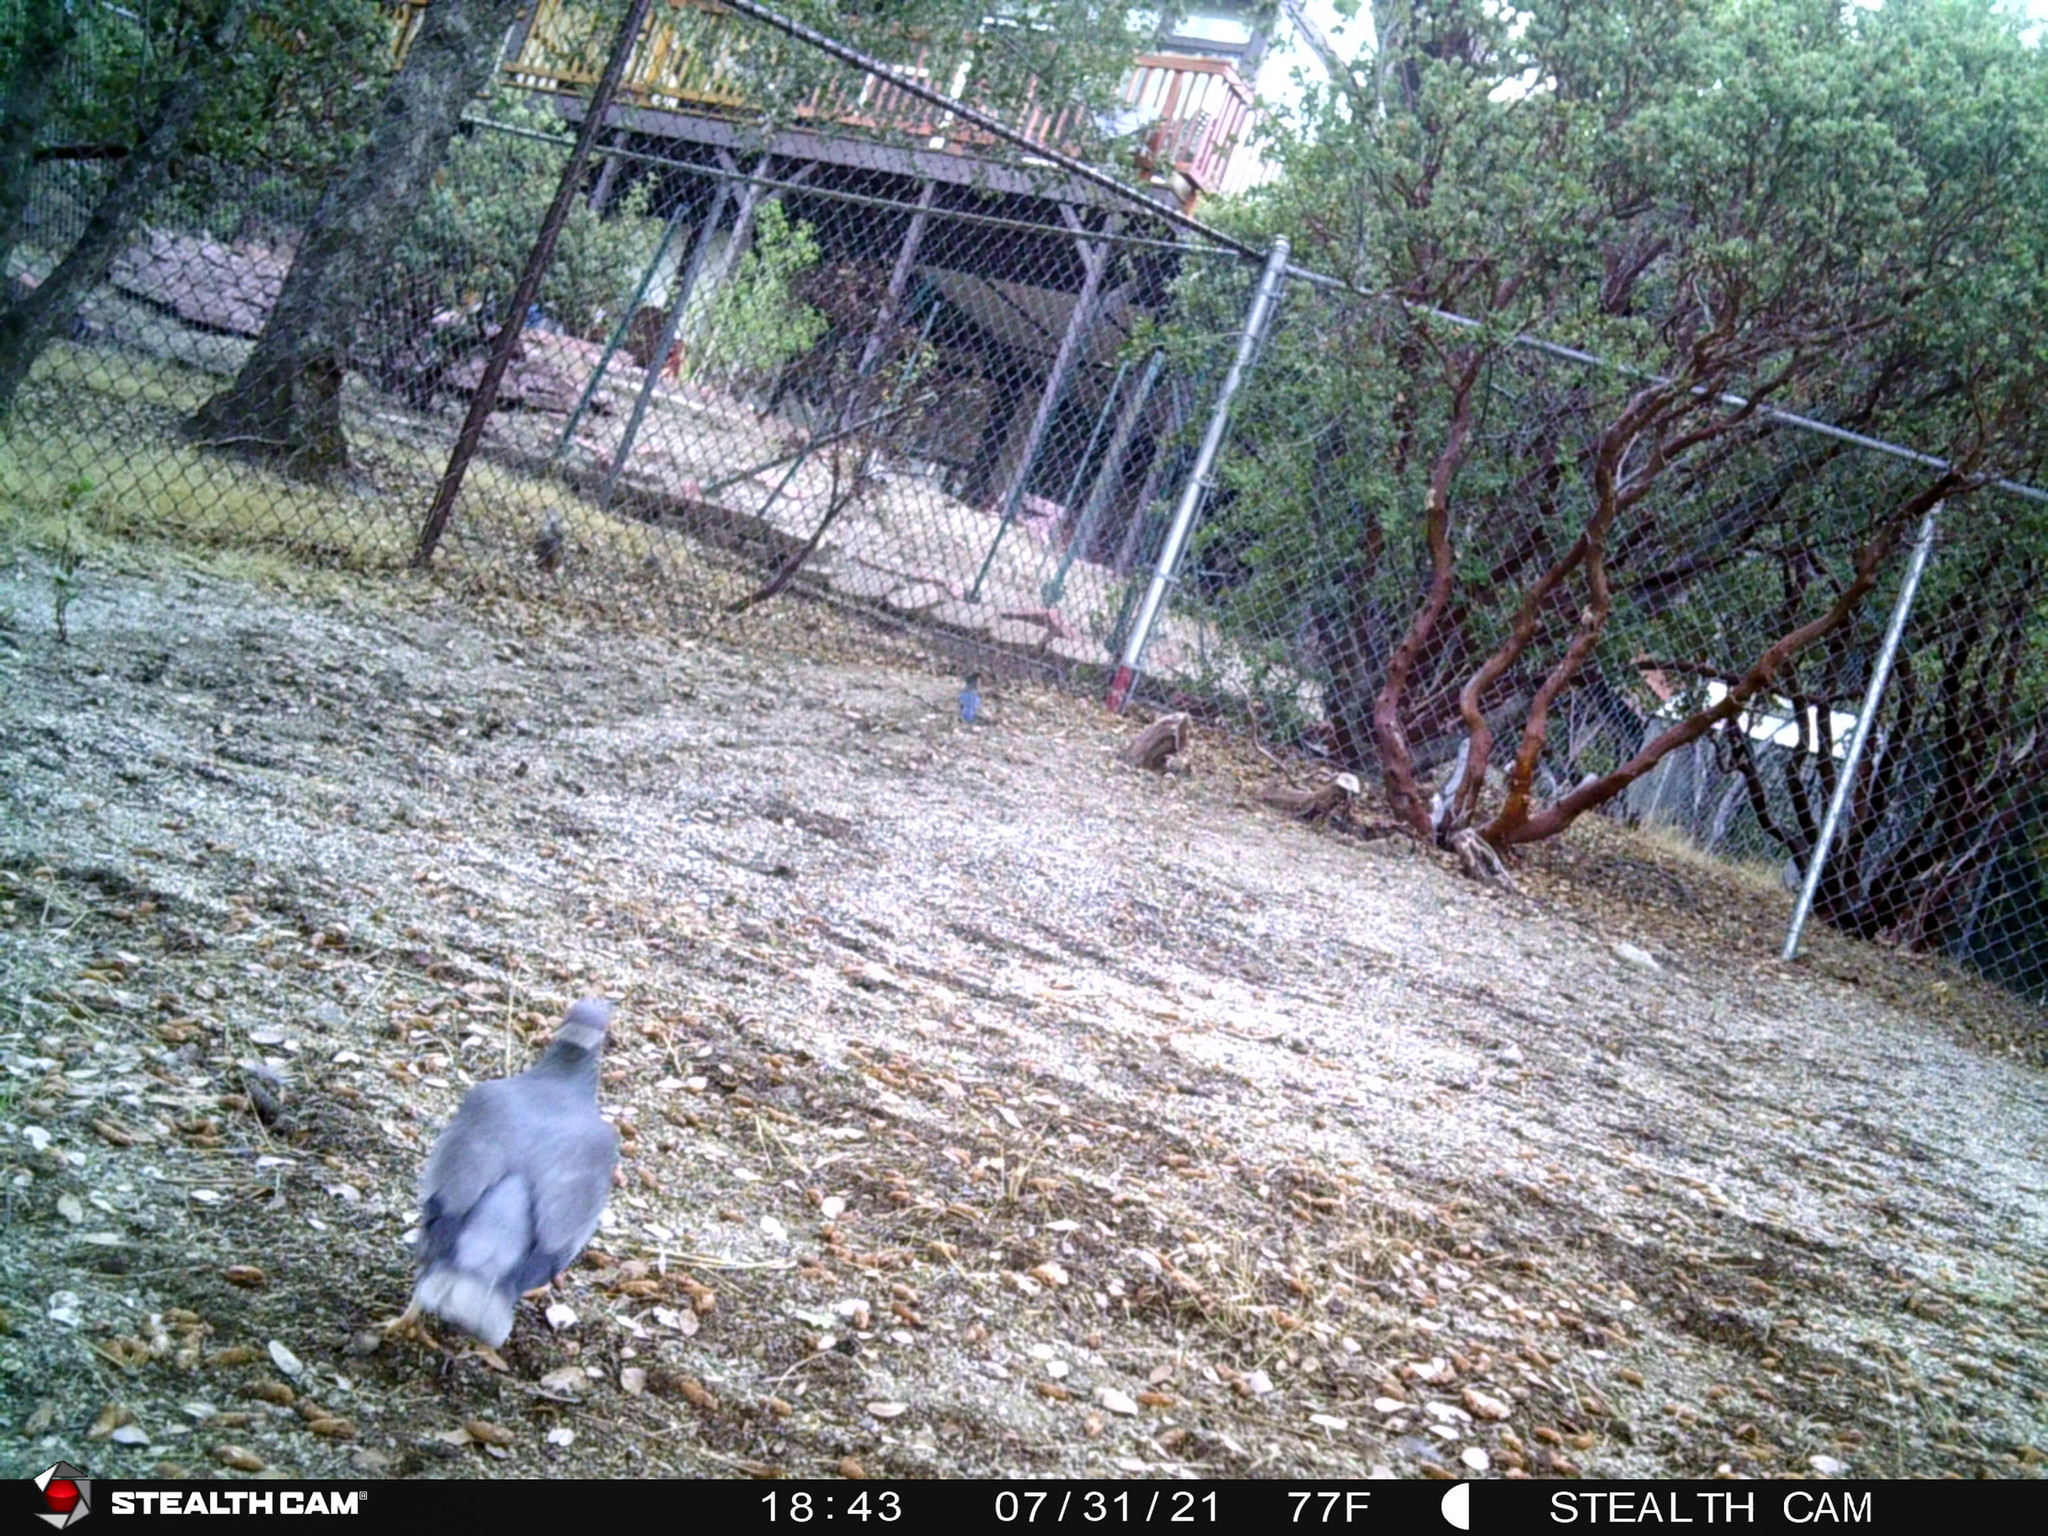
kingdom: Animalia
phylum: Chordata
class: Aves
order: Passeriformes
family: Corvidae
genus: Cyanocitta
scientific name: Cyanocitta stelleri
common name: Steller's jay
